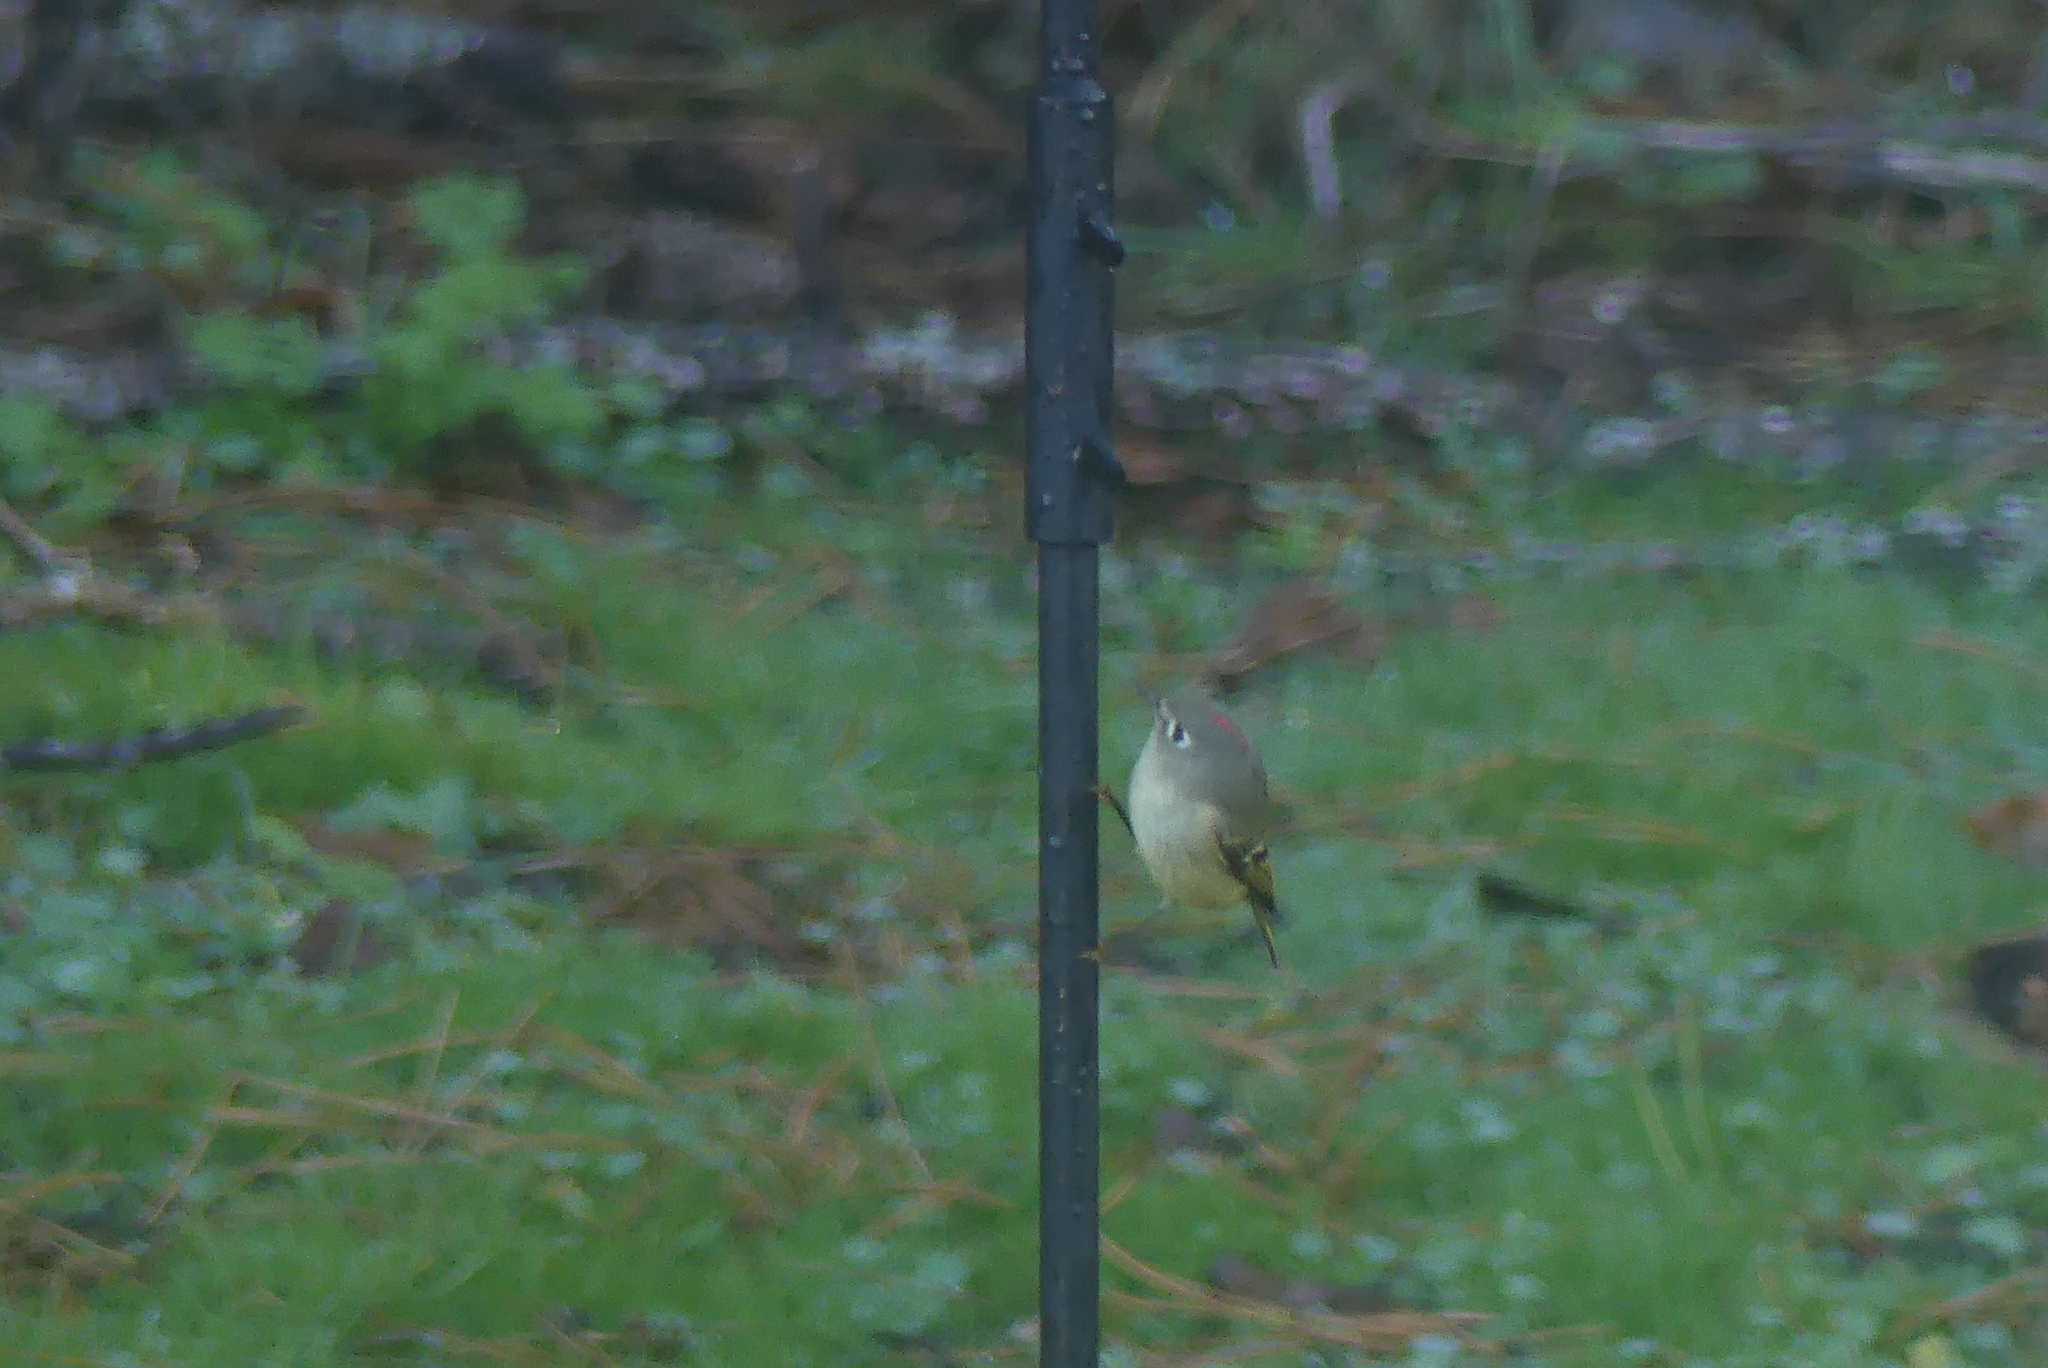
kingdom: Animalia
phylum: Chordata
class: Aves
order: Passeriformes
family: Regulidae
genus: Regulus
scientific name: Regulus calendula
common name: Ruby-crowned kinglet
